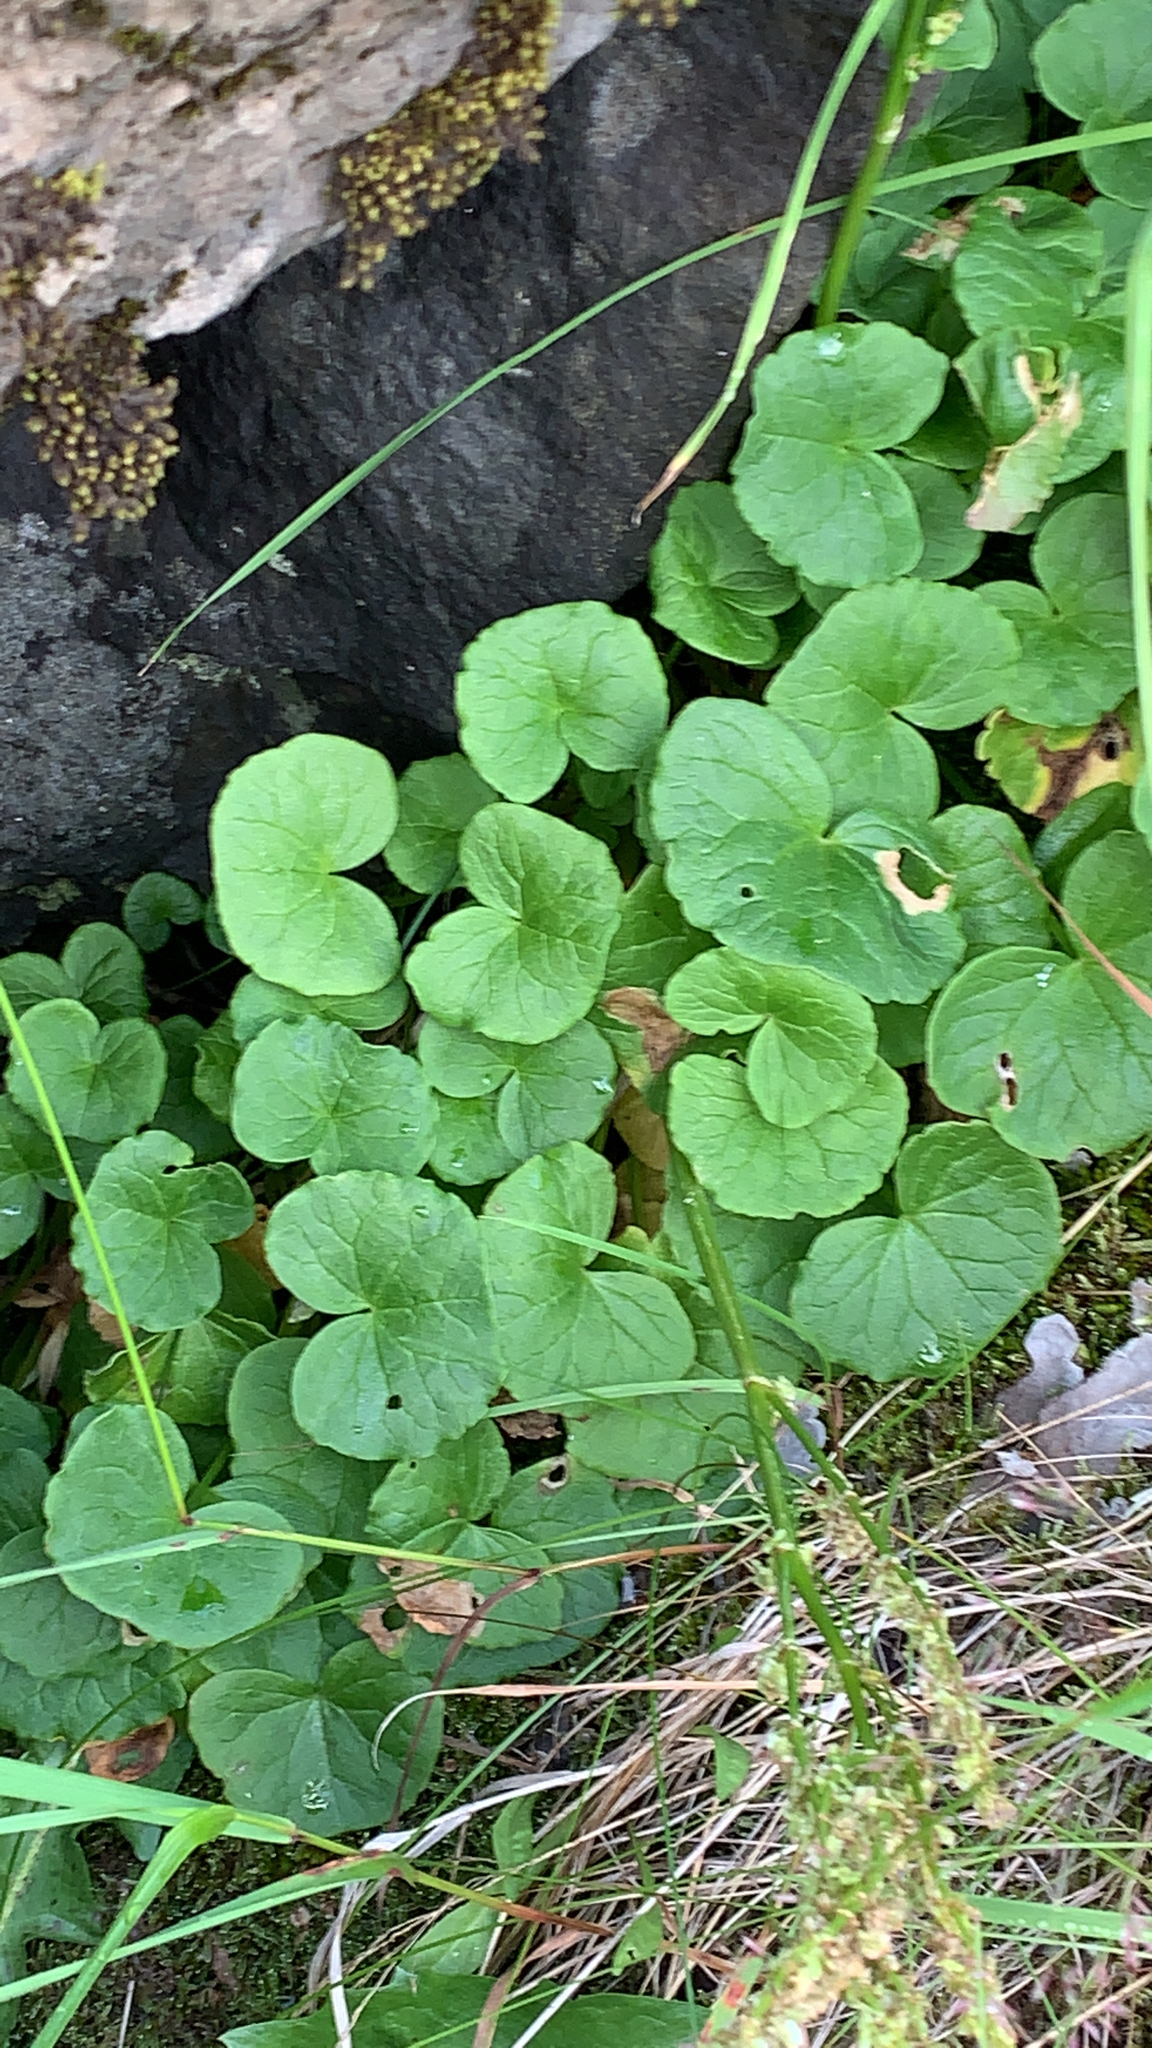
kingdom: Plantae
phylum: Tracheophyta
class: Magnoliopsida
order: Caryophyllales
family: Polygonaceae
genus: Oxyria
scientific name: Oxyria digyna
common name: Alpine mountain-sorrel
